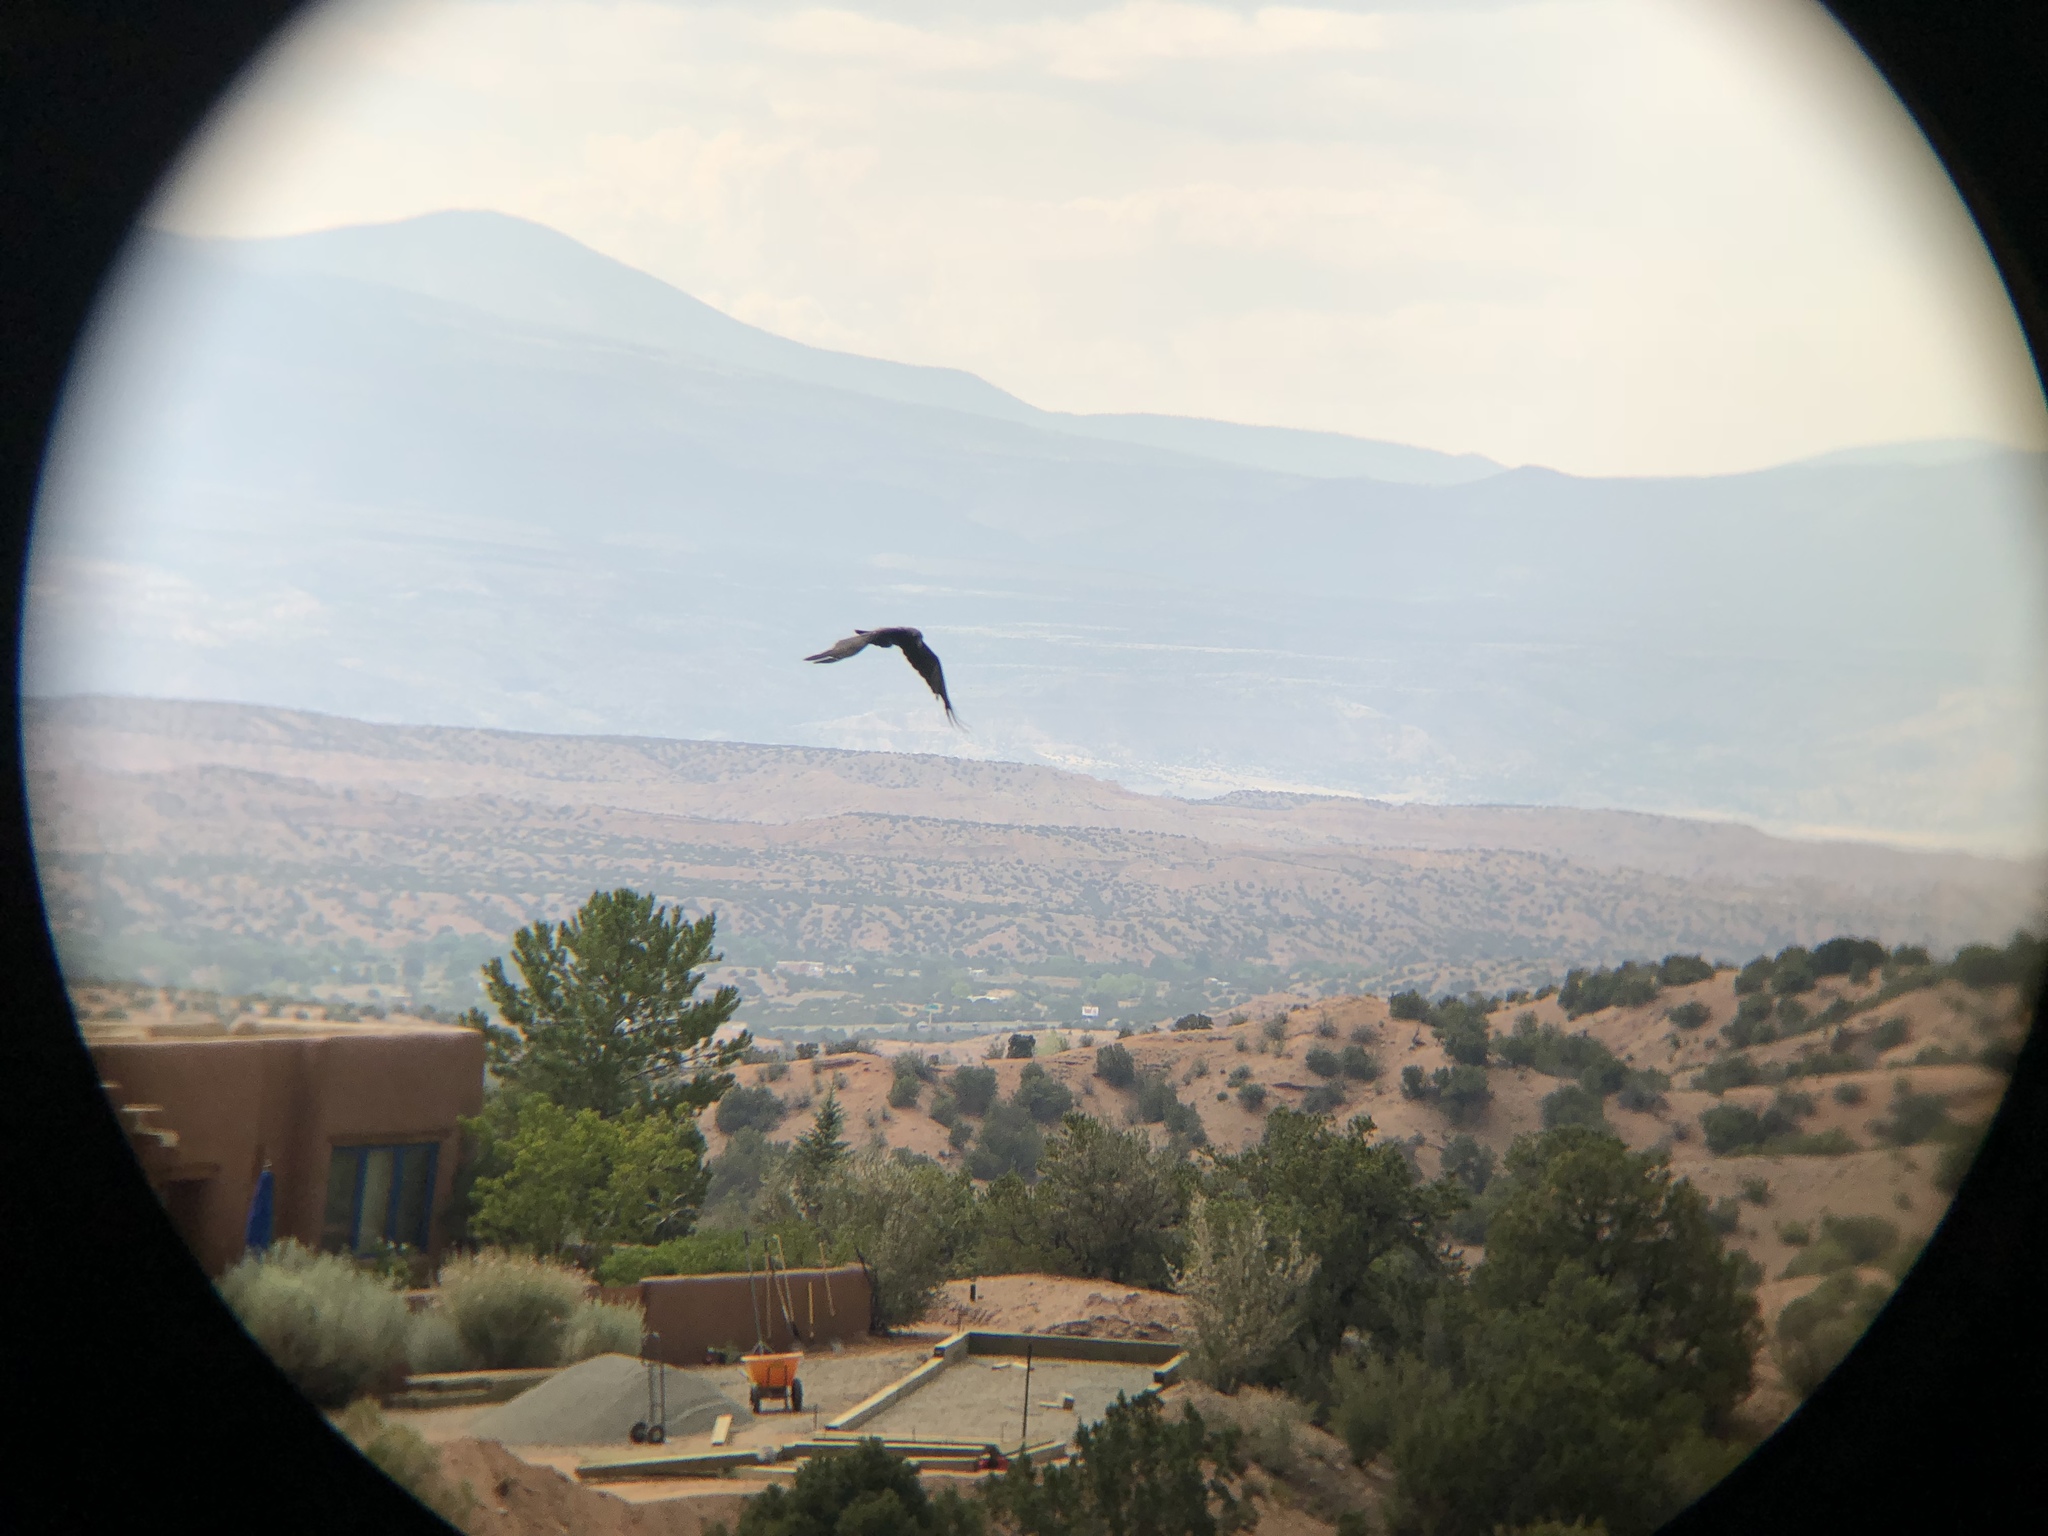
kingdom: Animalia
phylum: Chordata
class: Aves
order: Passeriformes
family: Corvidae
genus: Corvus
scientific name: Corvus brachyrhynchos
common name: American crow
